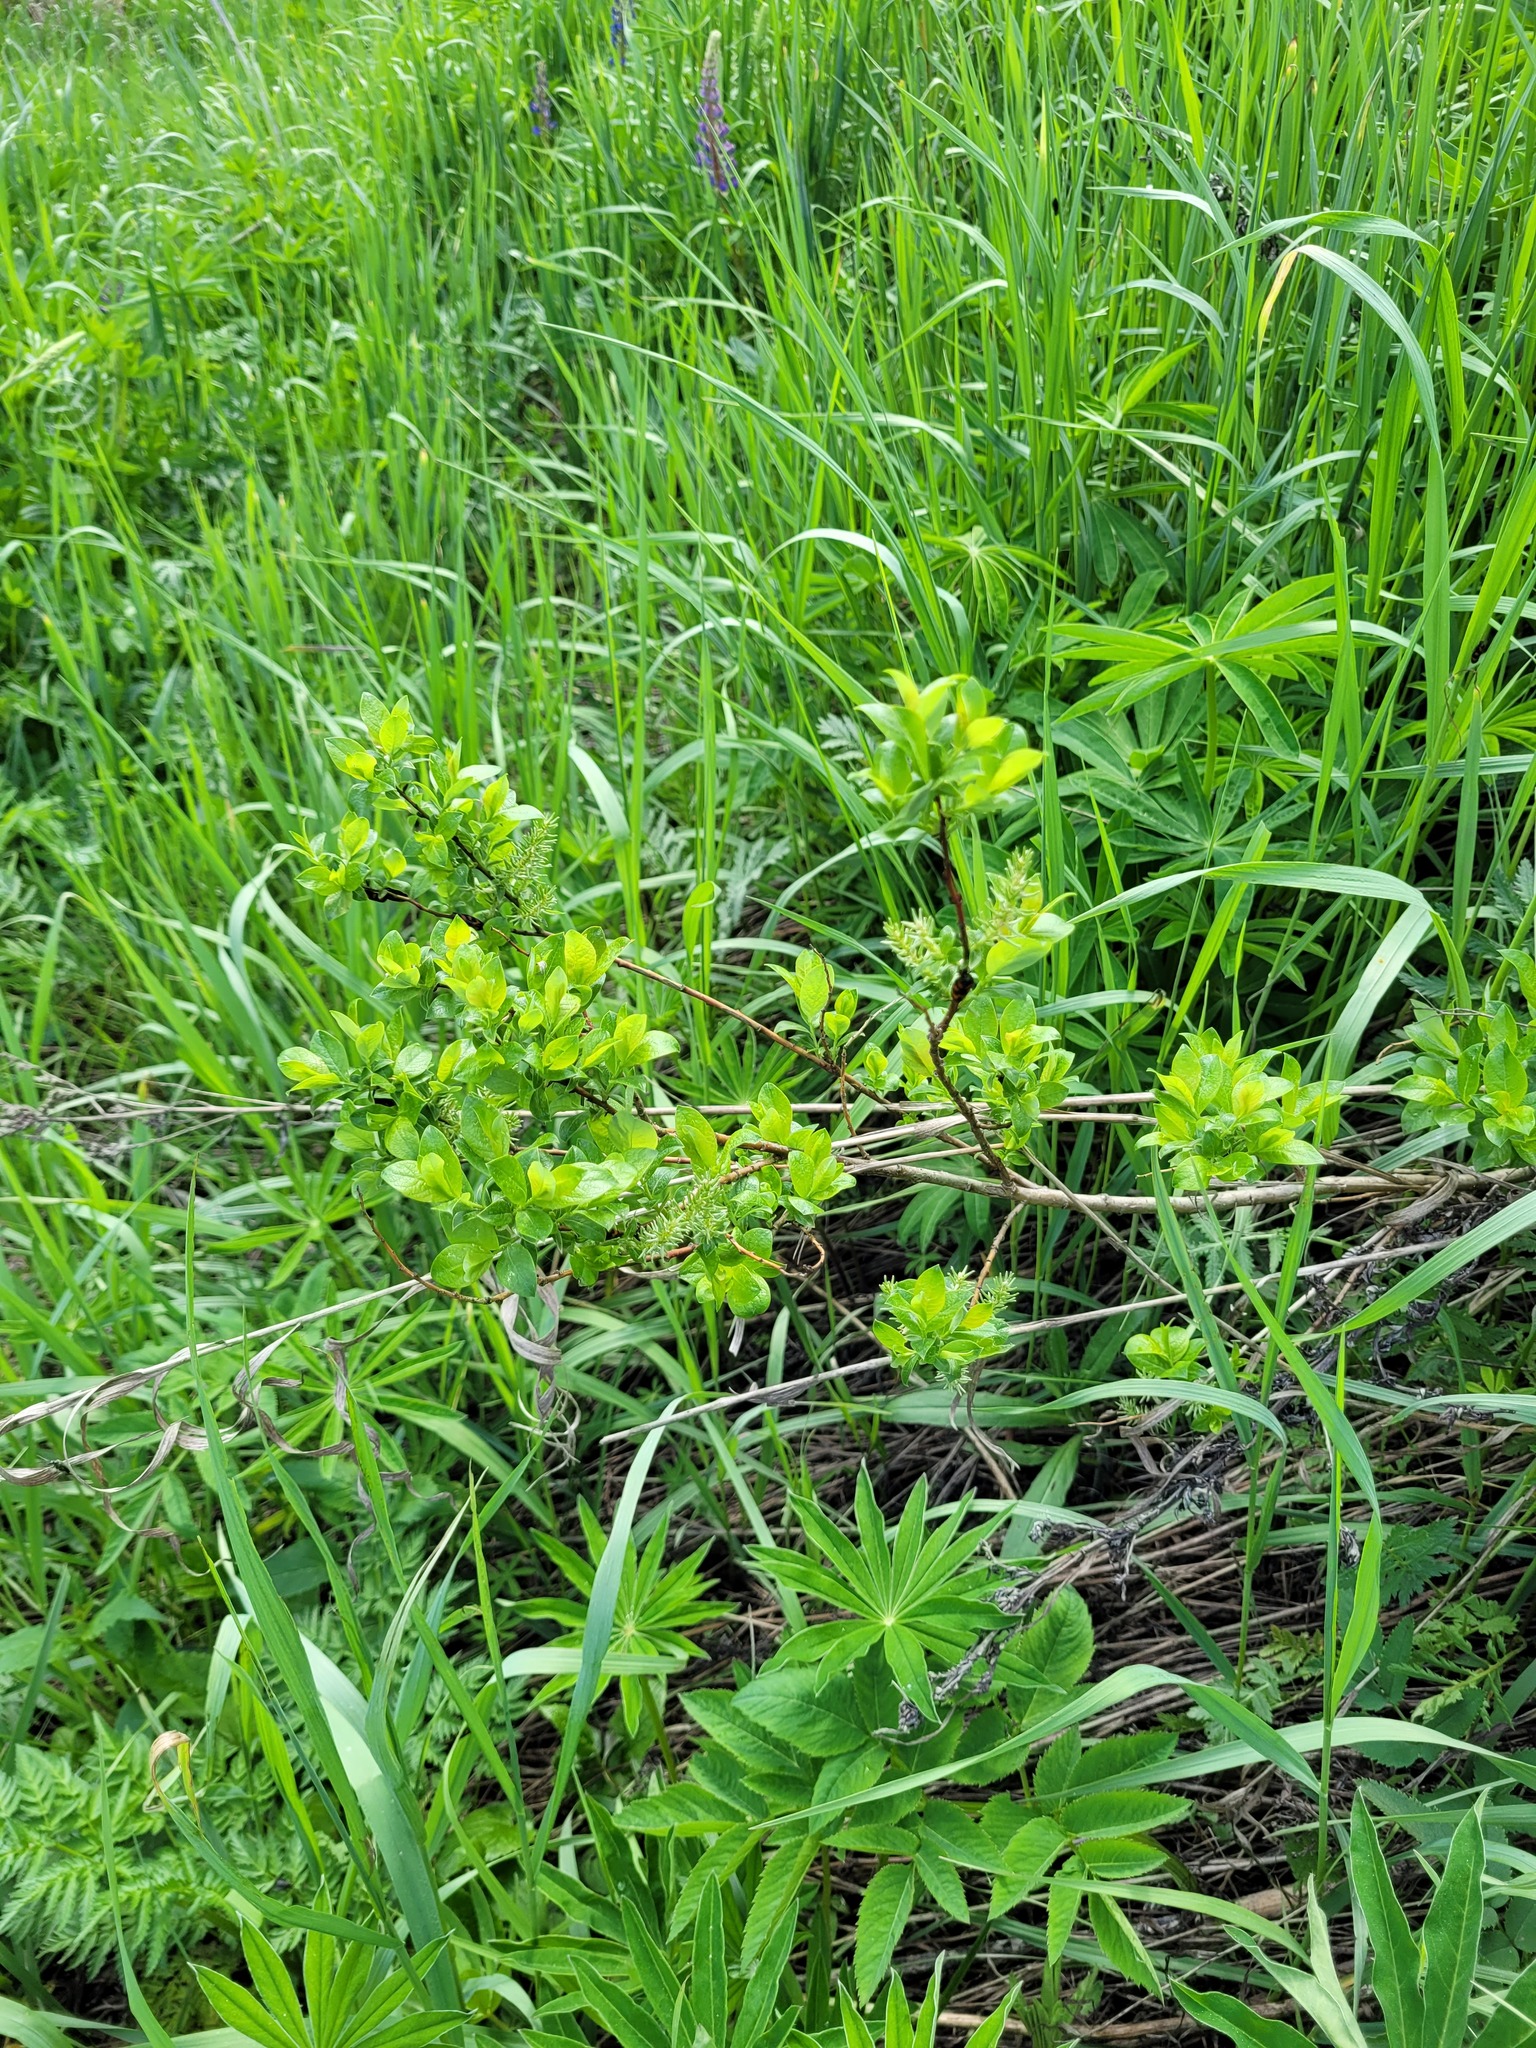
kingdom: Plantae
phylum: Tracheophyta
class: Magnoliopsida
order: Malpighiales
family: Salicaceae
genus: Salix
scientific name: Salix myrsinifolia
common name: Dark-leaved willow
